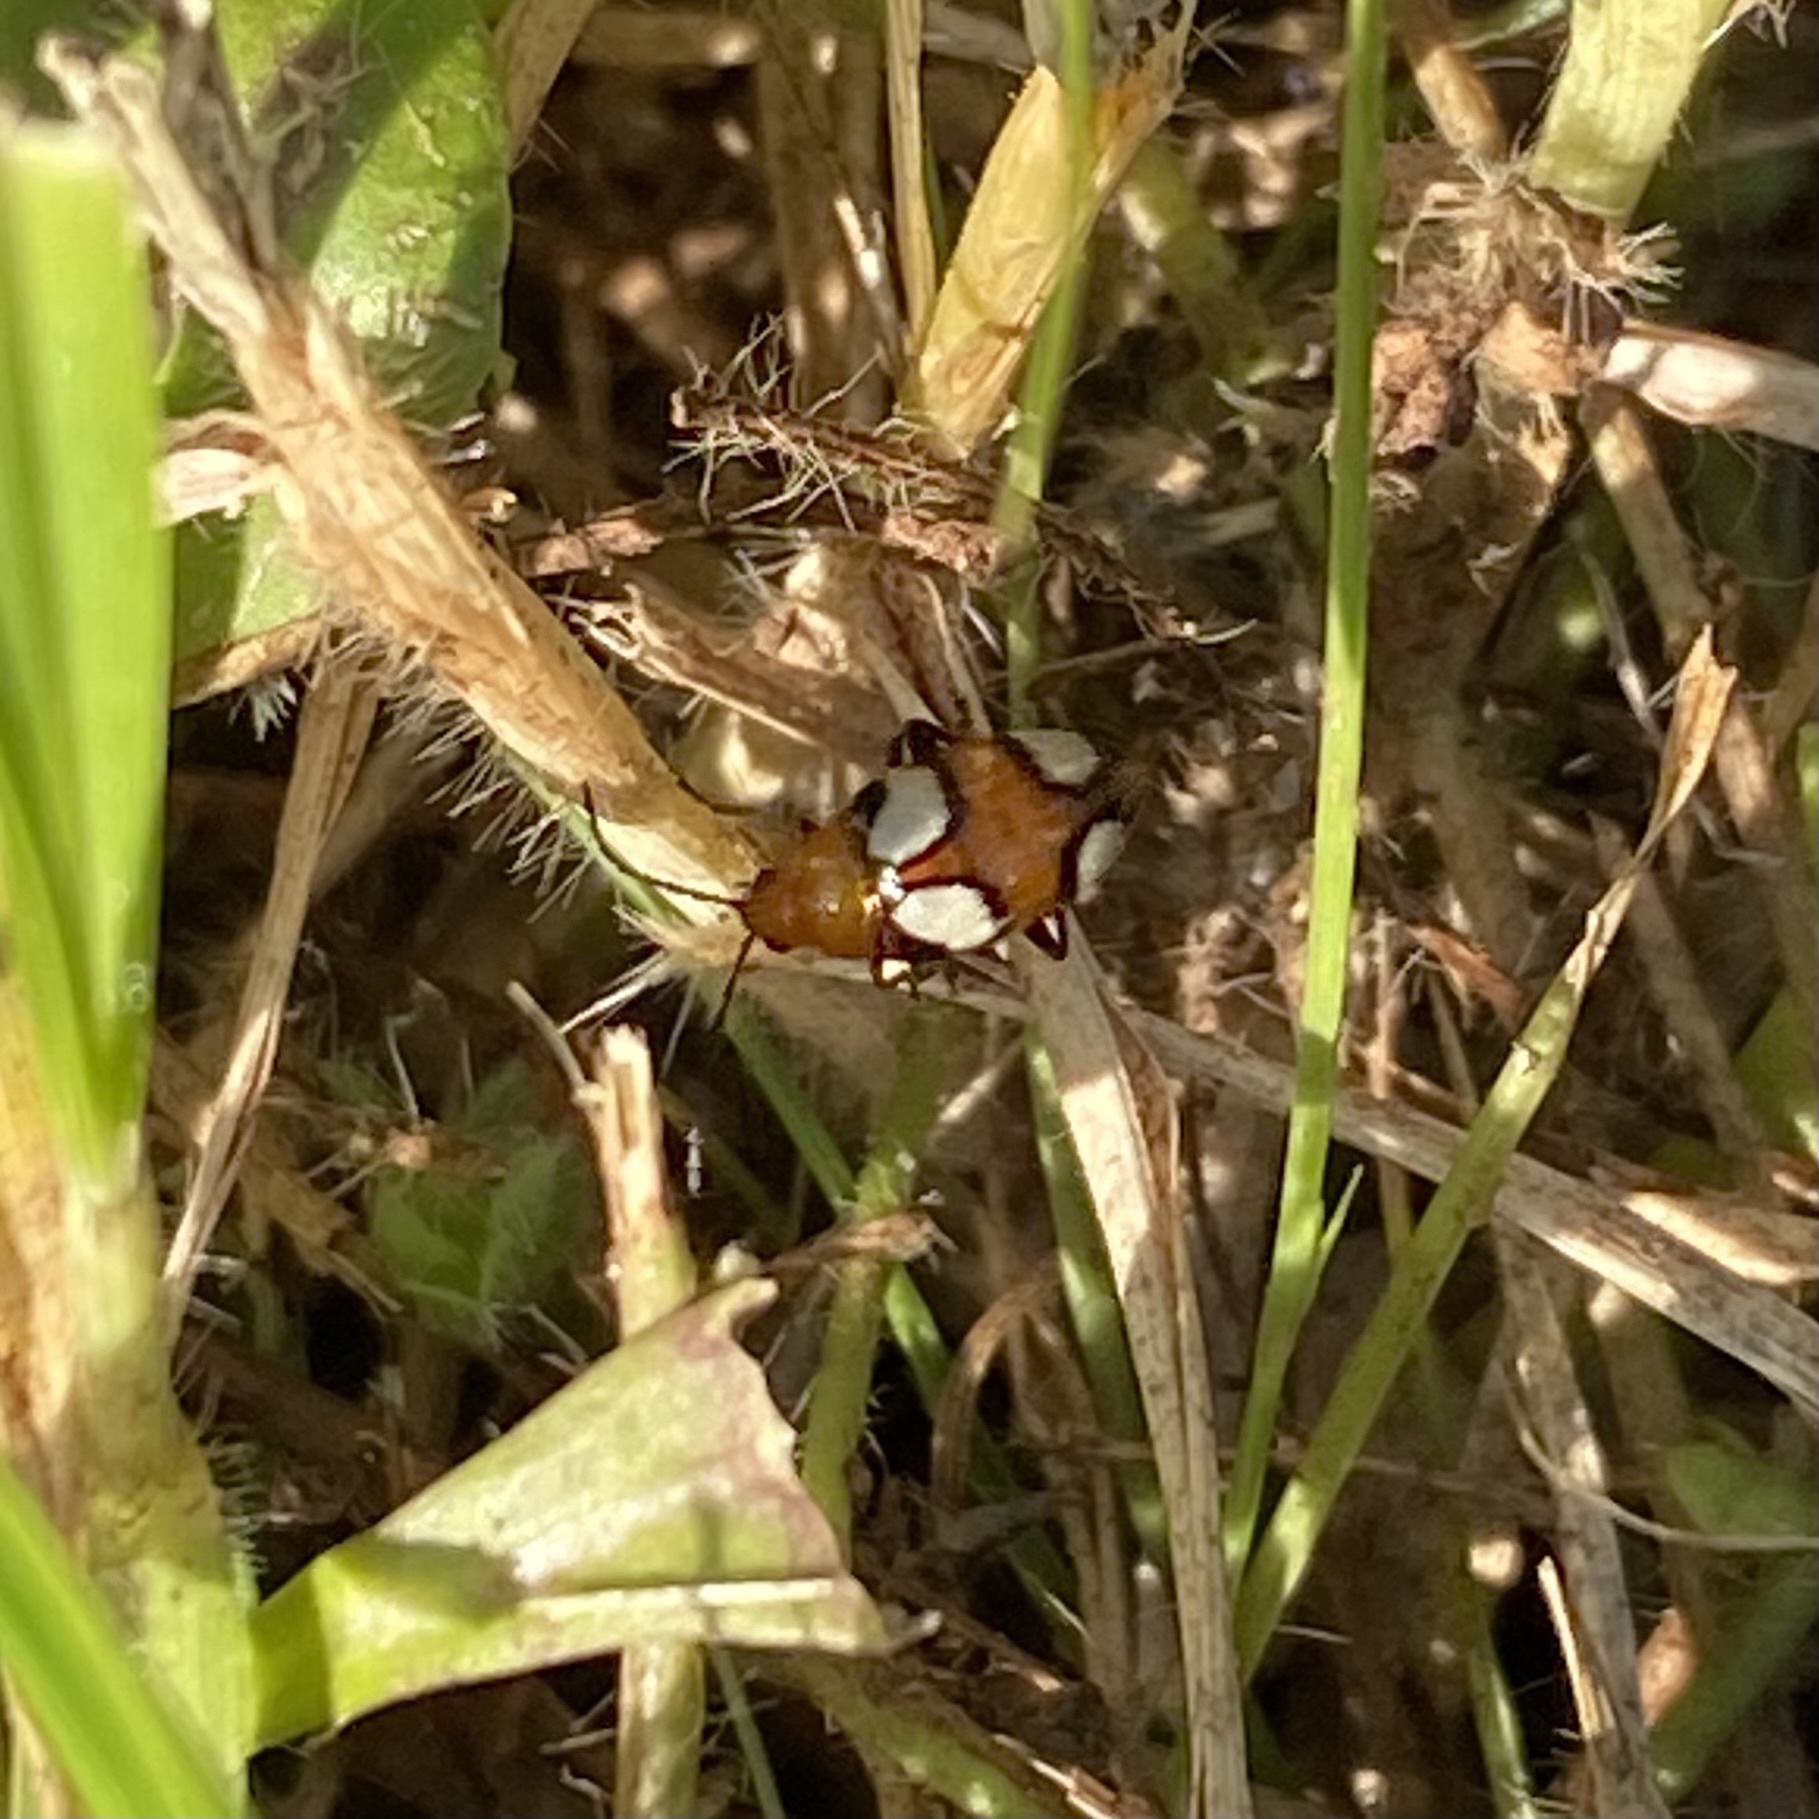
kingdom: Animalia
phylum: Arthropoda
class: Insecta
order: Coleoptera
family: Chrysomelidae
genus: Monolepta
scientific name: Monolepta
